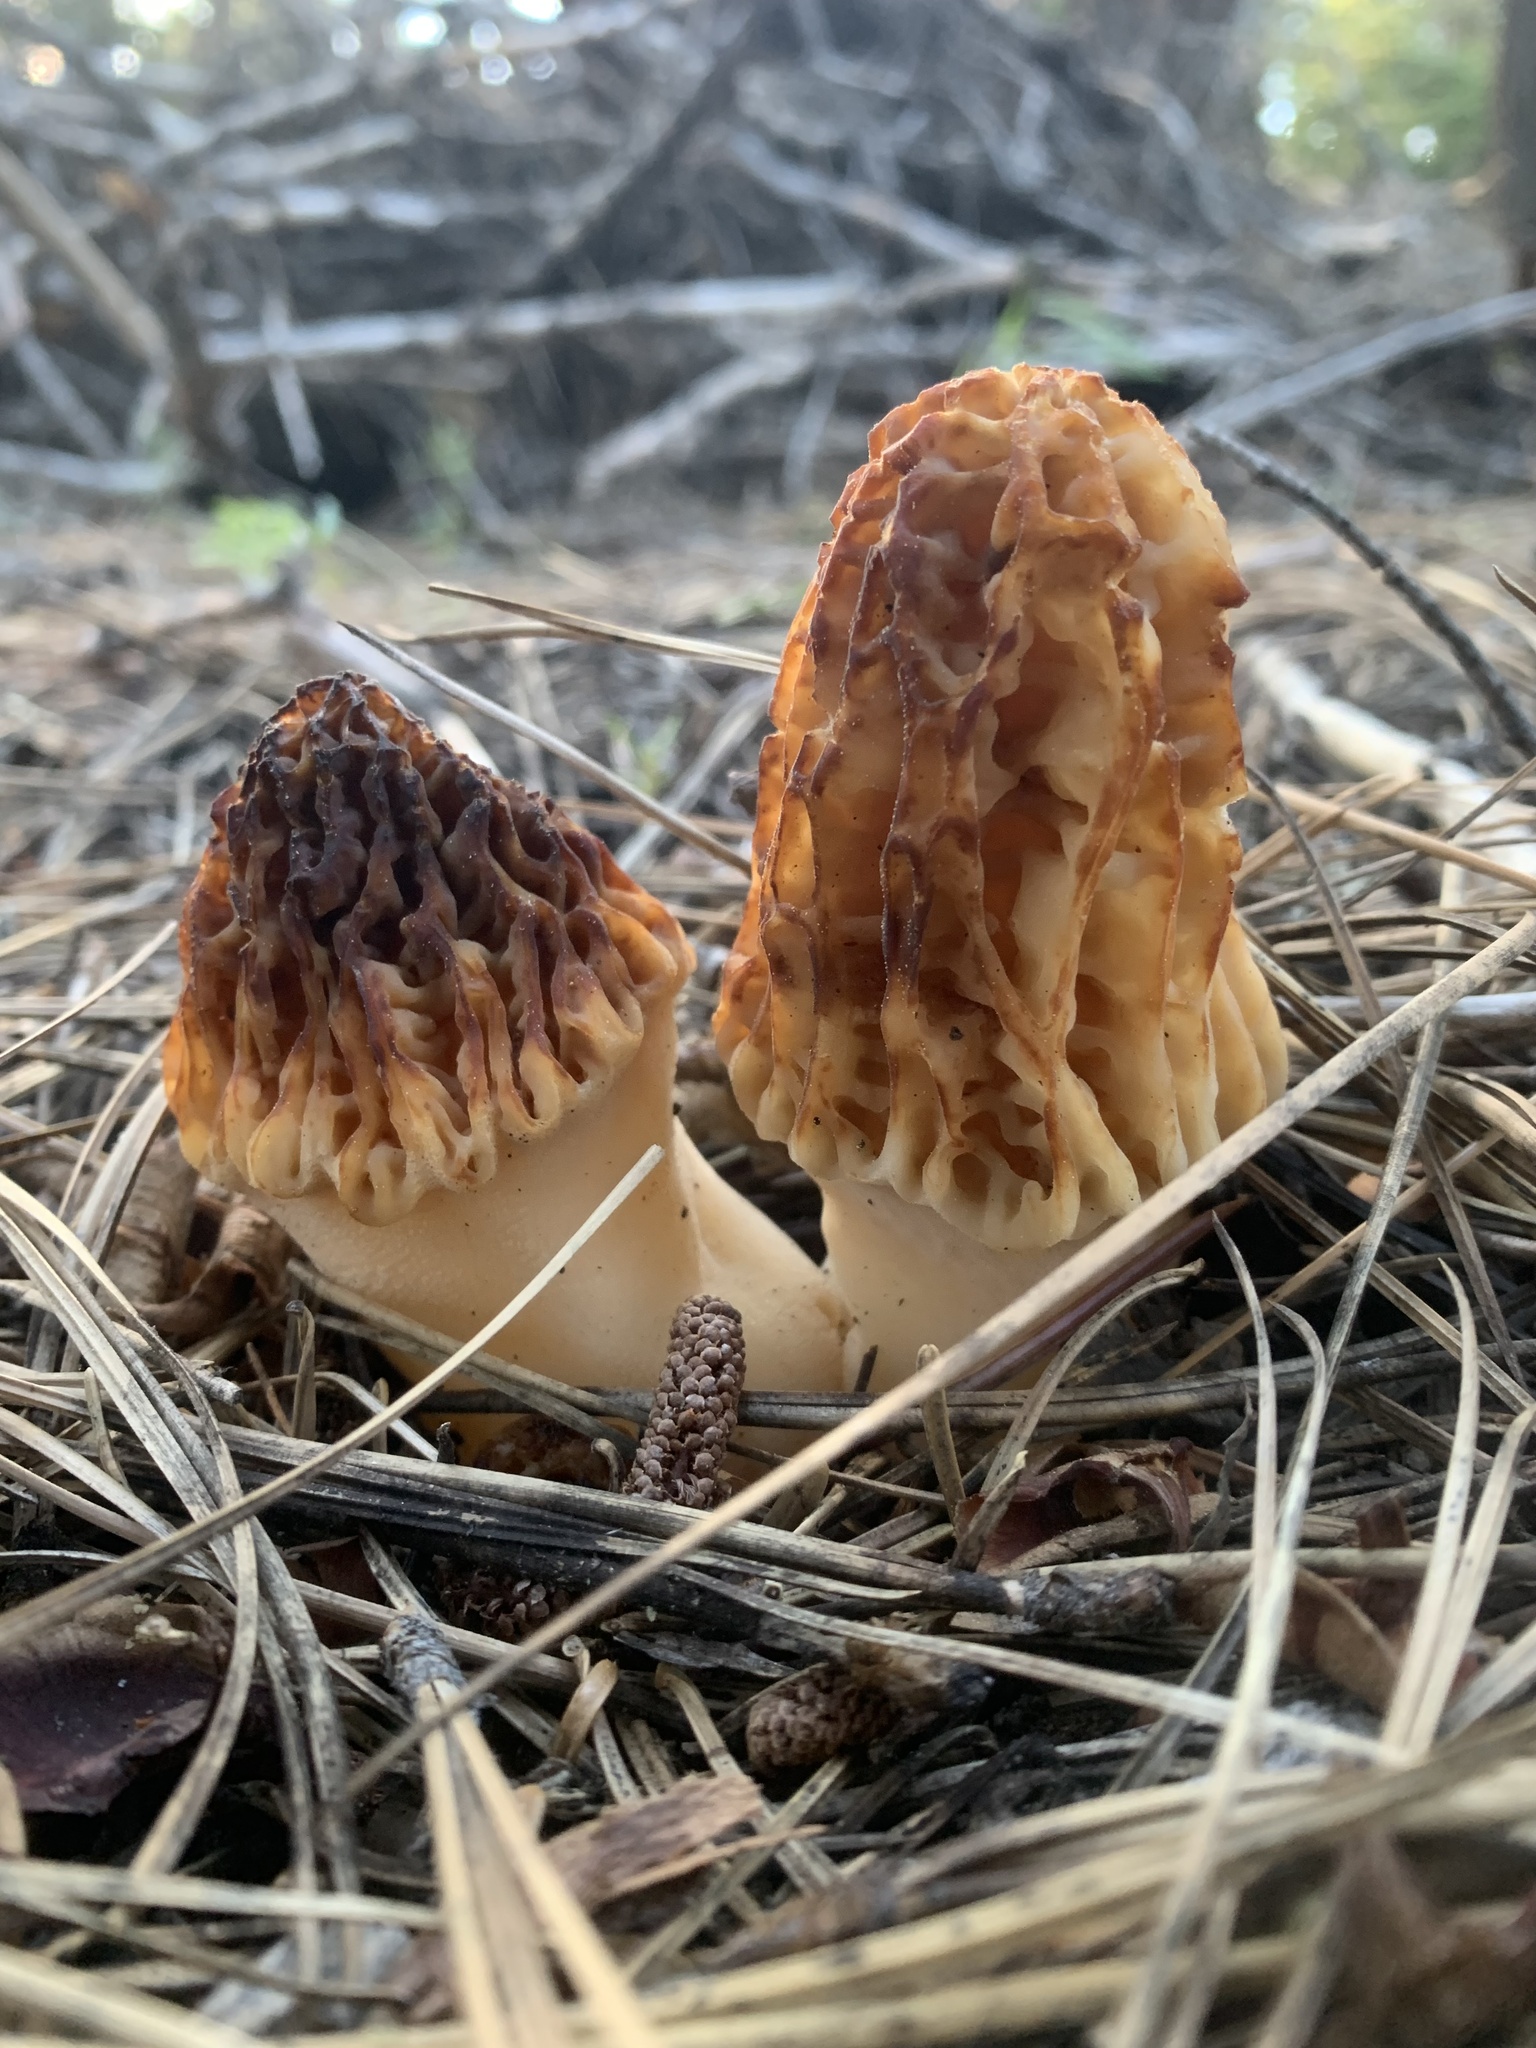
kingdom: Fungi
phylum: Ascomycota
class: Pezizomycetes
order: Pezizales
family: Morchellaceae
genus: Morchella
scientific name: Morchella tridentina
